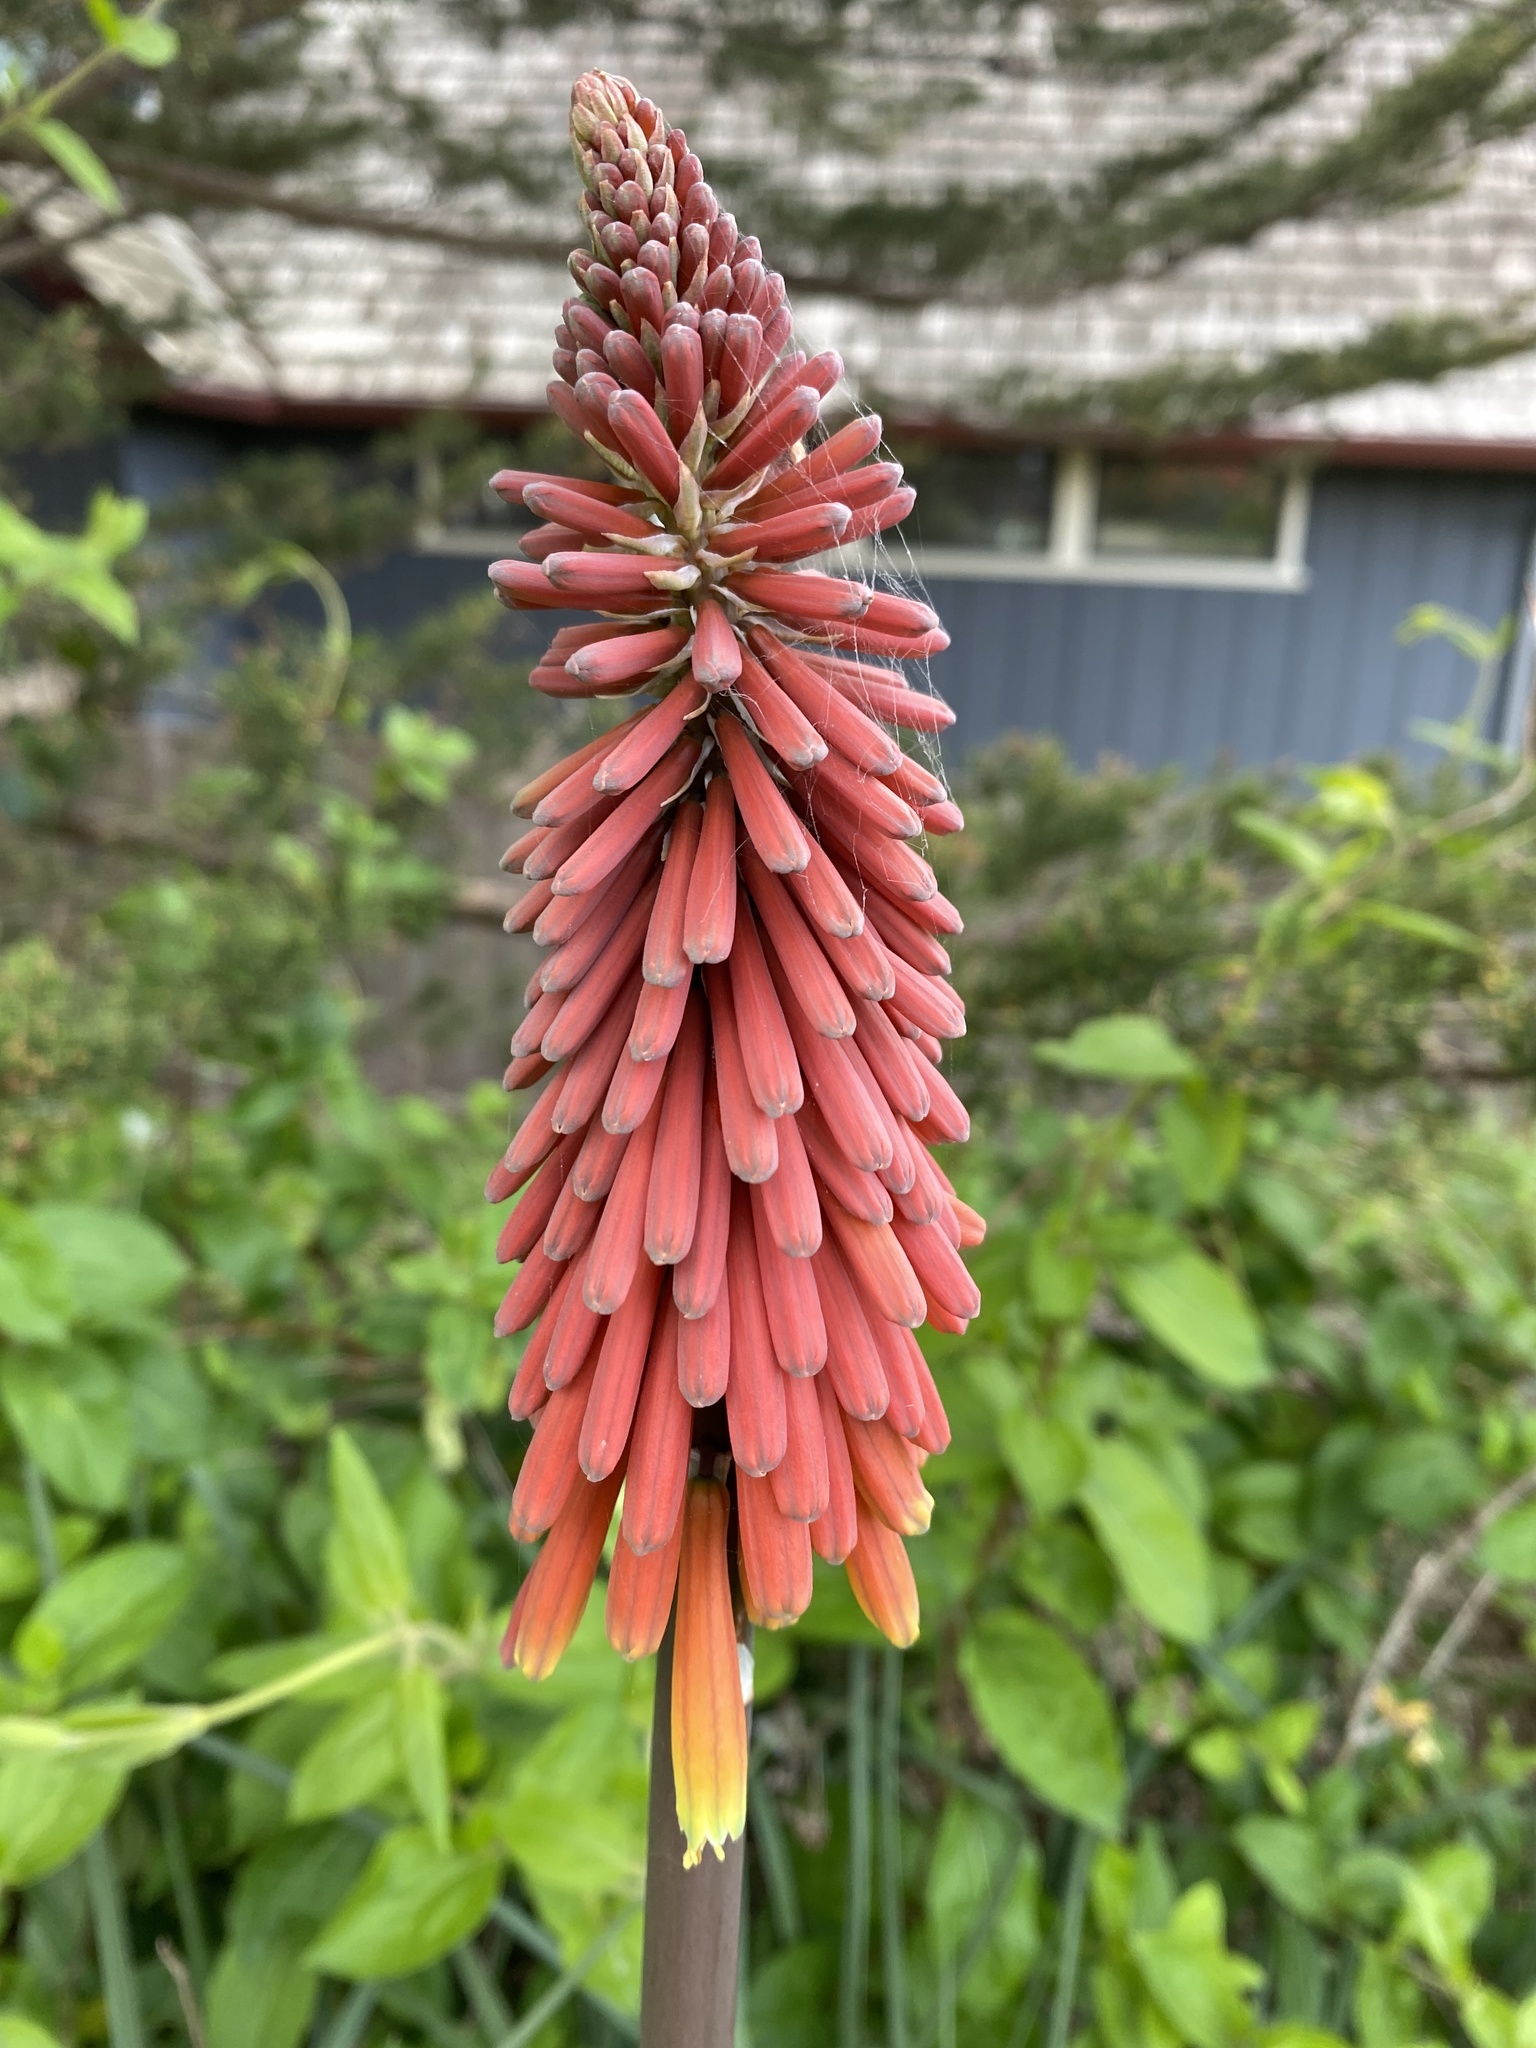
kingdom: Plantae
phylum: Tracheophyta
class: Liliopsida
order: Asparagales
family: Asphodelaceae
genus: Kniphofia
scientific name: Kniphofia uvaria
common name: Red-hot-poker
